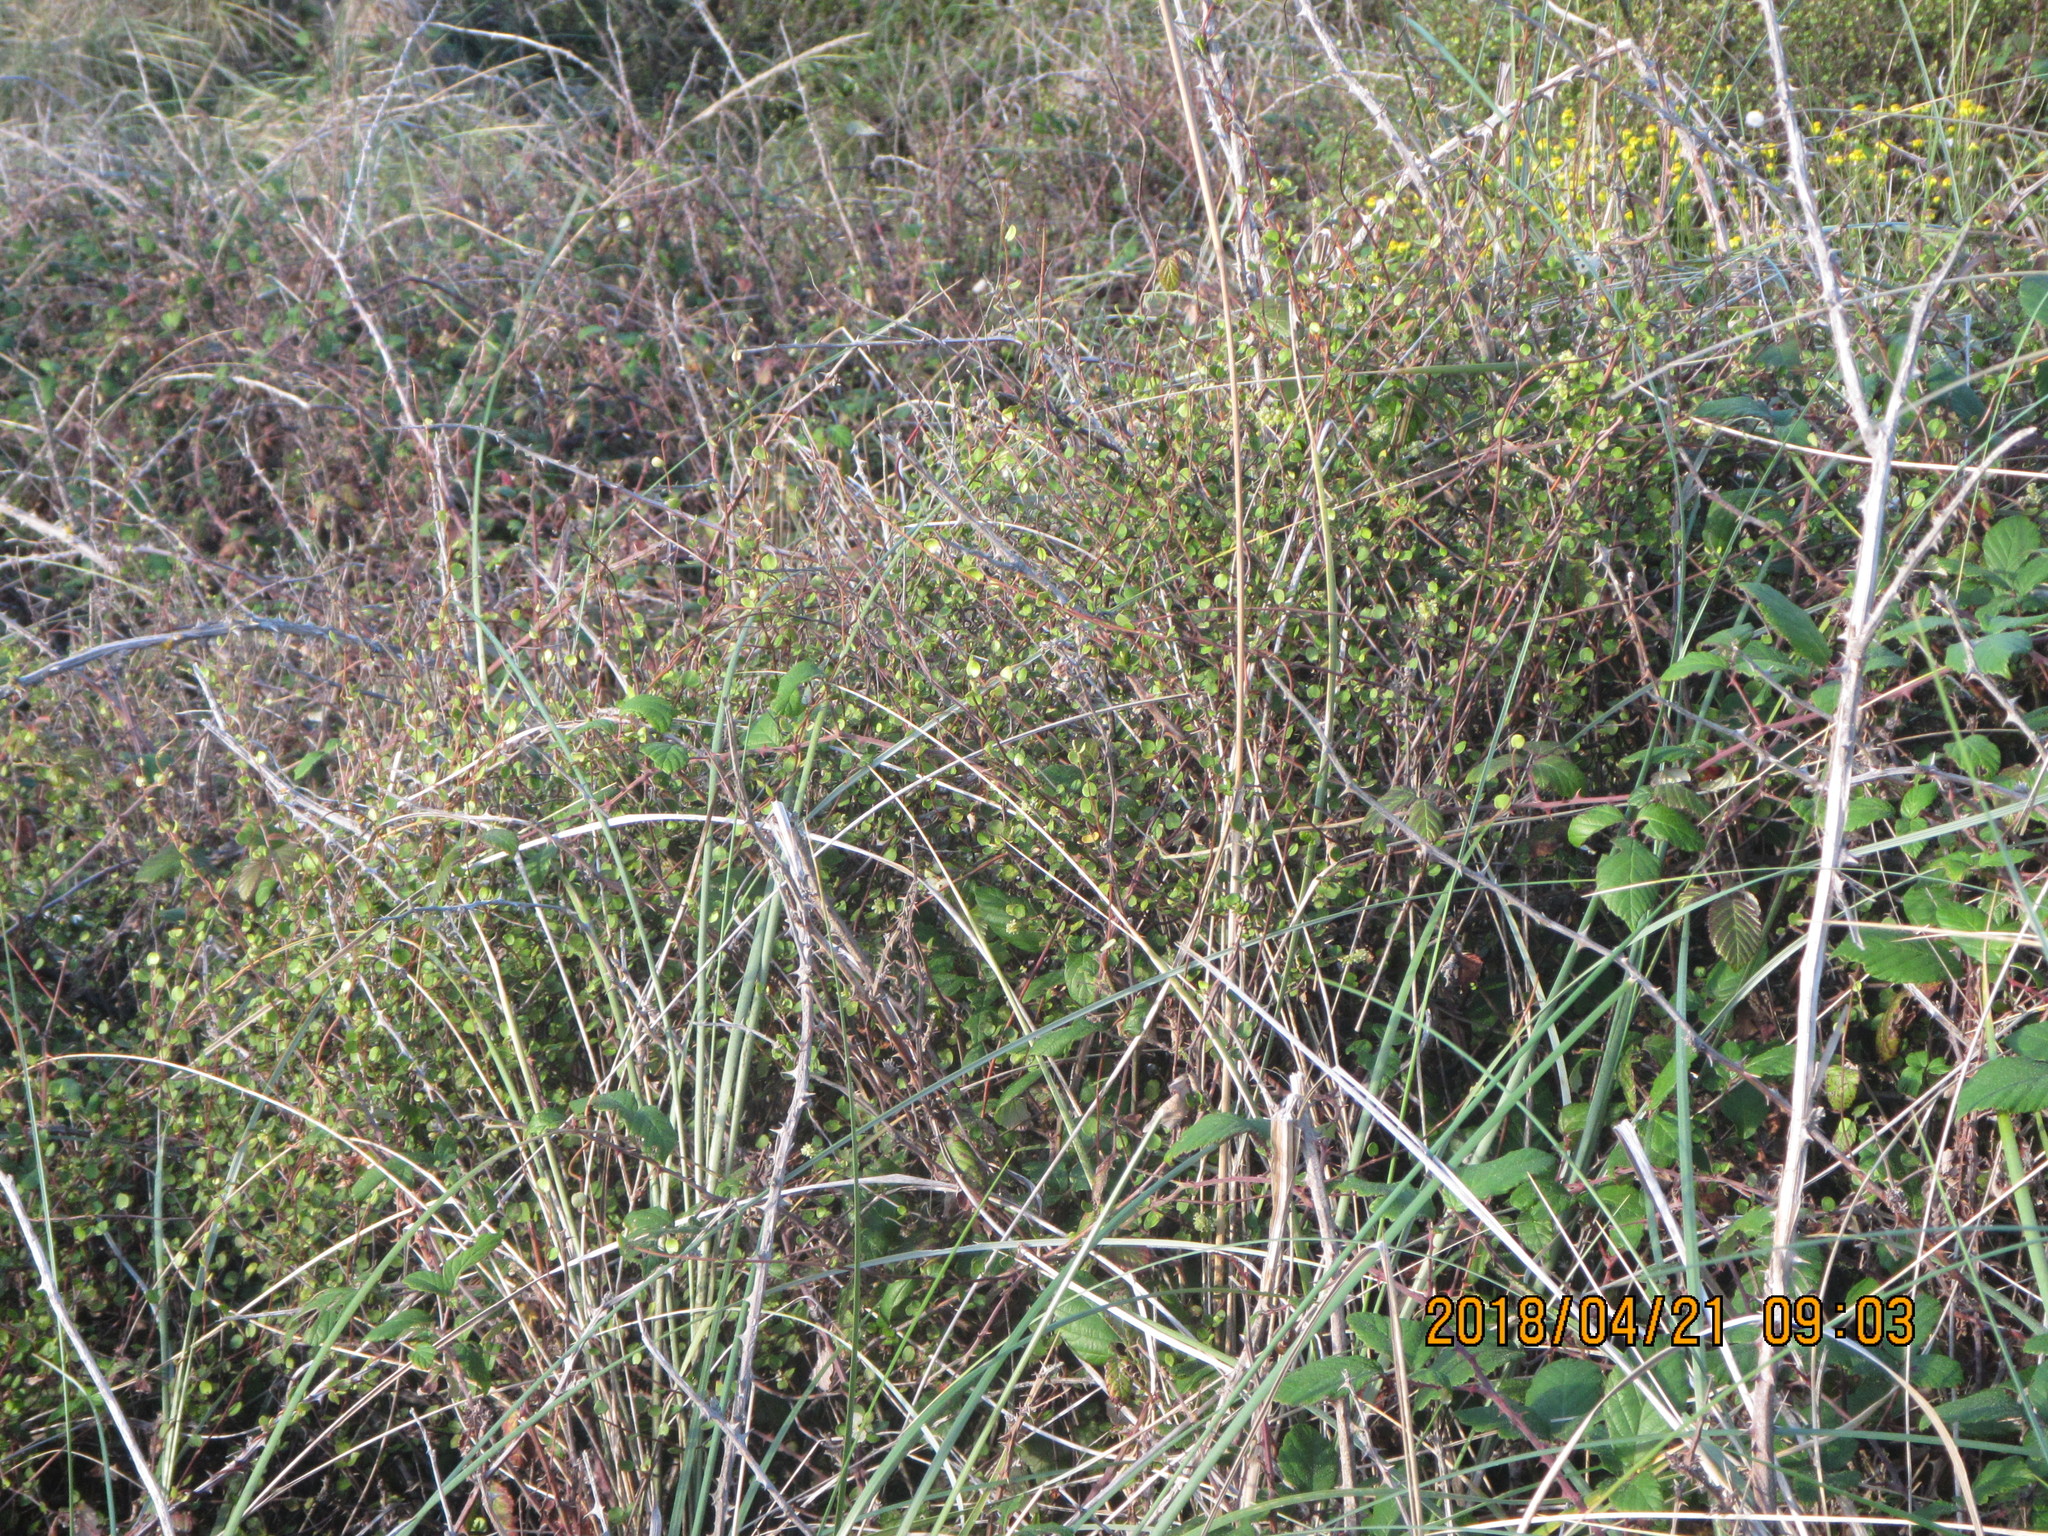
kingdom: Plantae
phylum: Tracheophyta
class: Magnoliopsida
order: Caryophyllales
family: Polygonaceae
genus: Muehlenbeckia
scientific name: Muehlenbeckia complexa
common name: Wireplant
